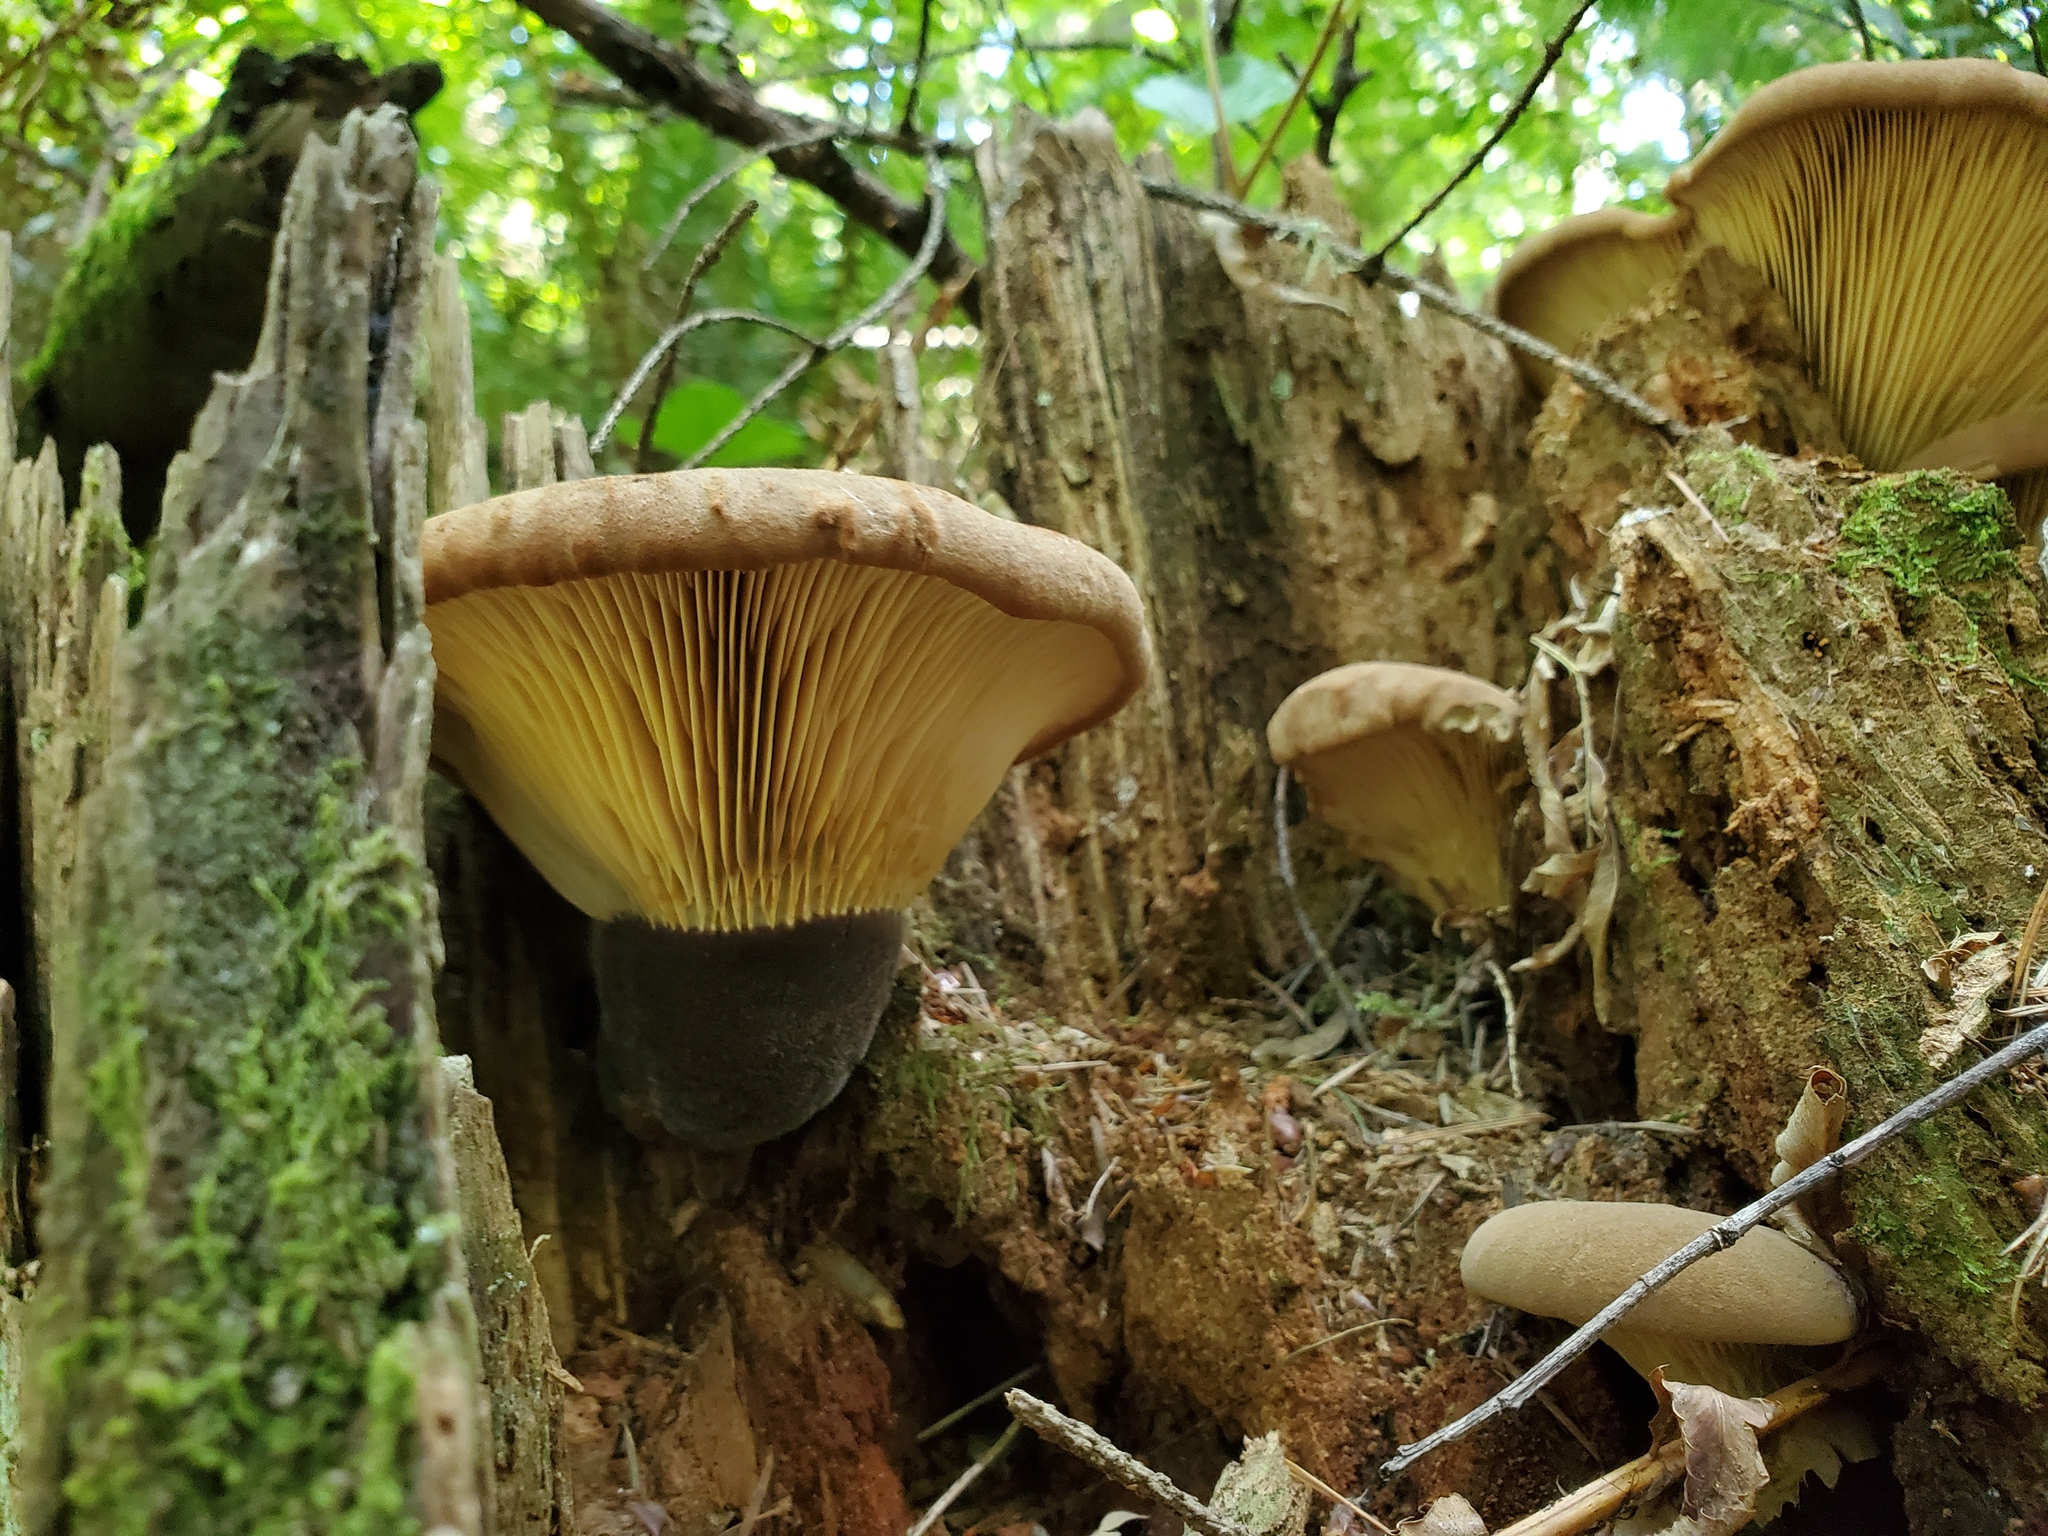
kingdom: Fungi
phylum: Basidiomycota
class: Agaricomycetes
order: Boletales
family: Tapinellaceae
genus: Tapinella
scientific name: Tapinella atrotomentosa
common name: Velvet rollrim
